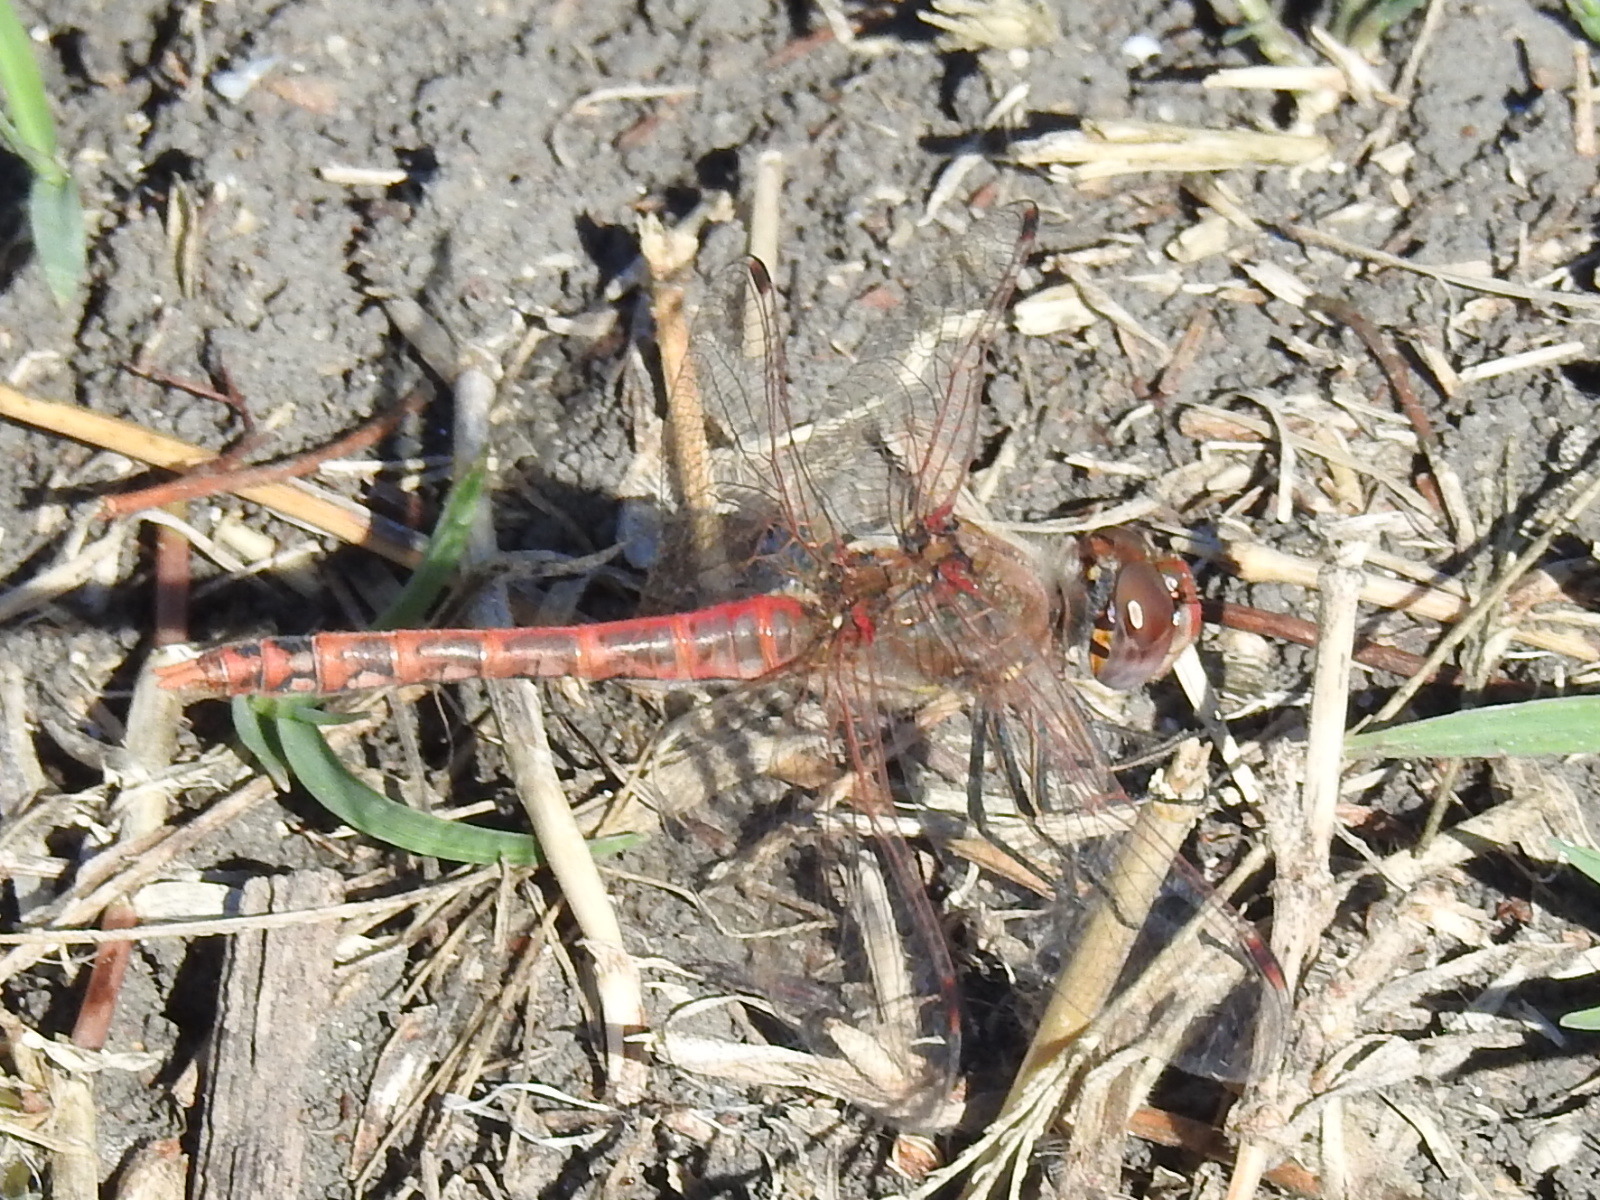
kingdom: Animalia
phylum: Arthropoda
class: Insecta
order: Odonata
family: Libellulidae
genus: Sympetrum
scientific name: Sympetrum corruptum
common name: Variegated meadowhawk
